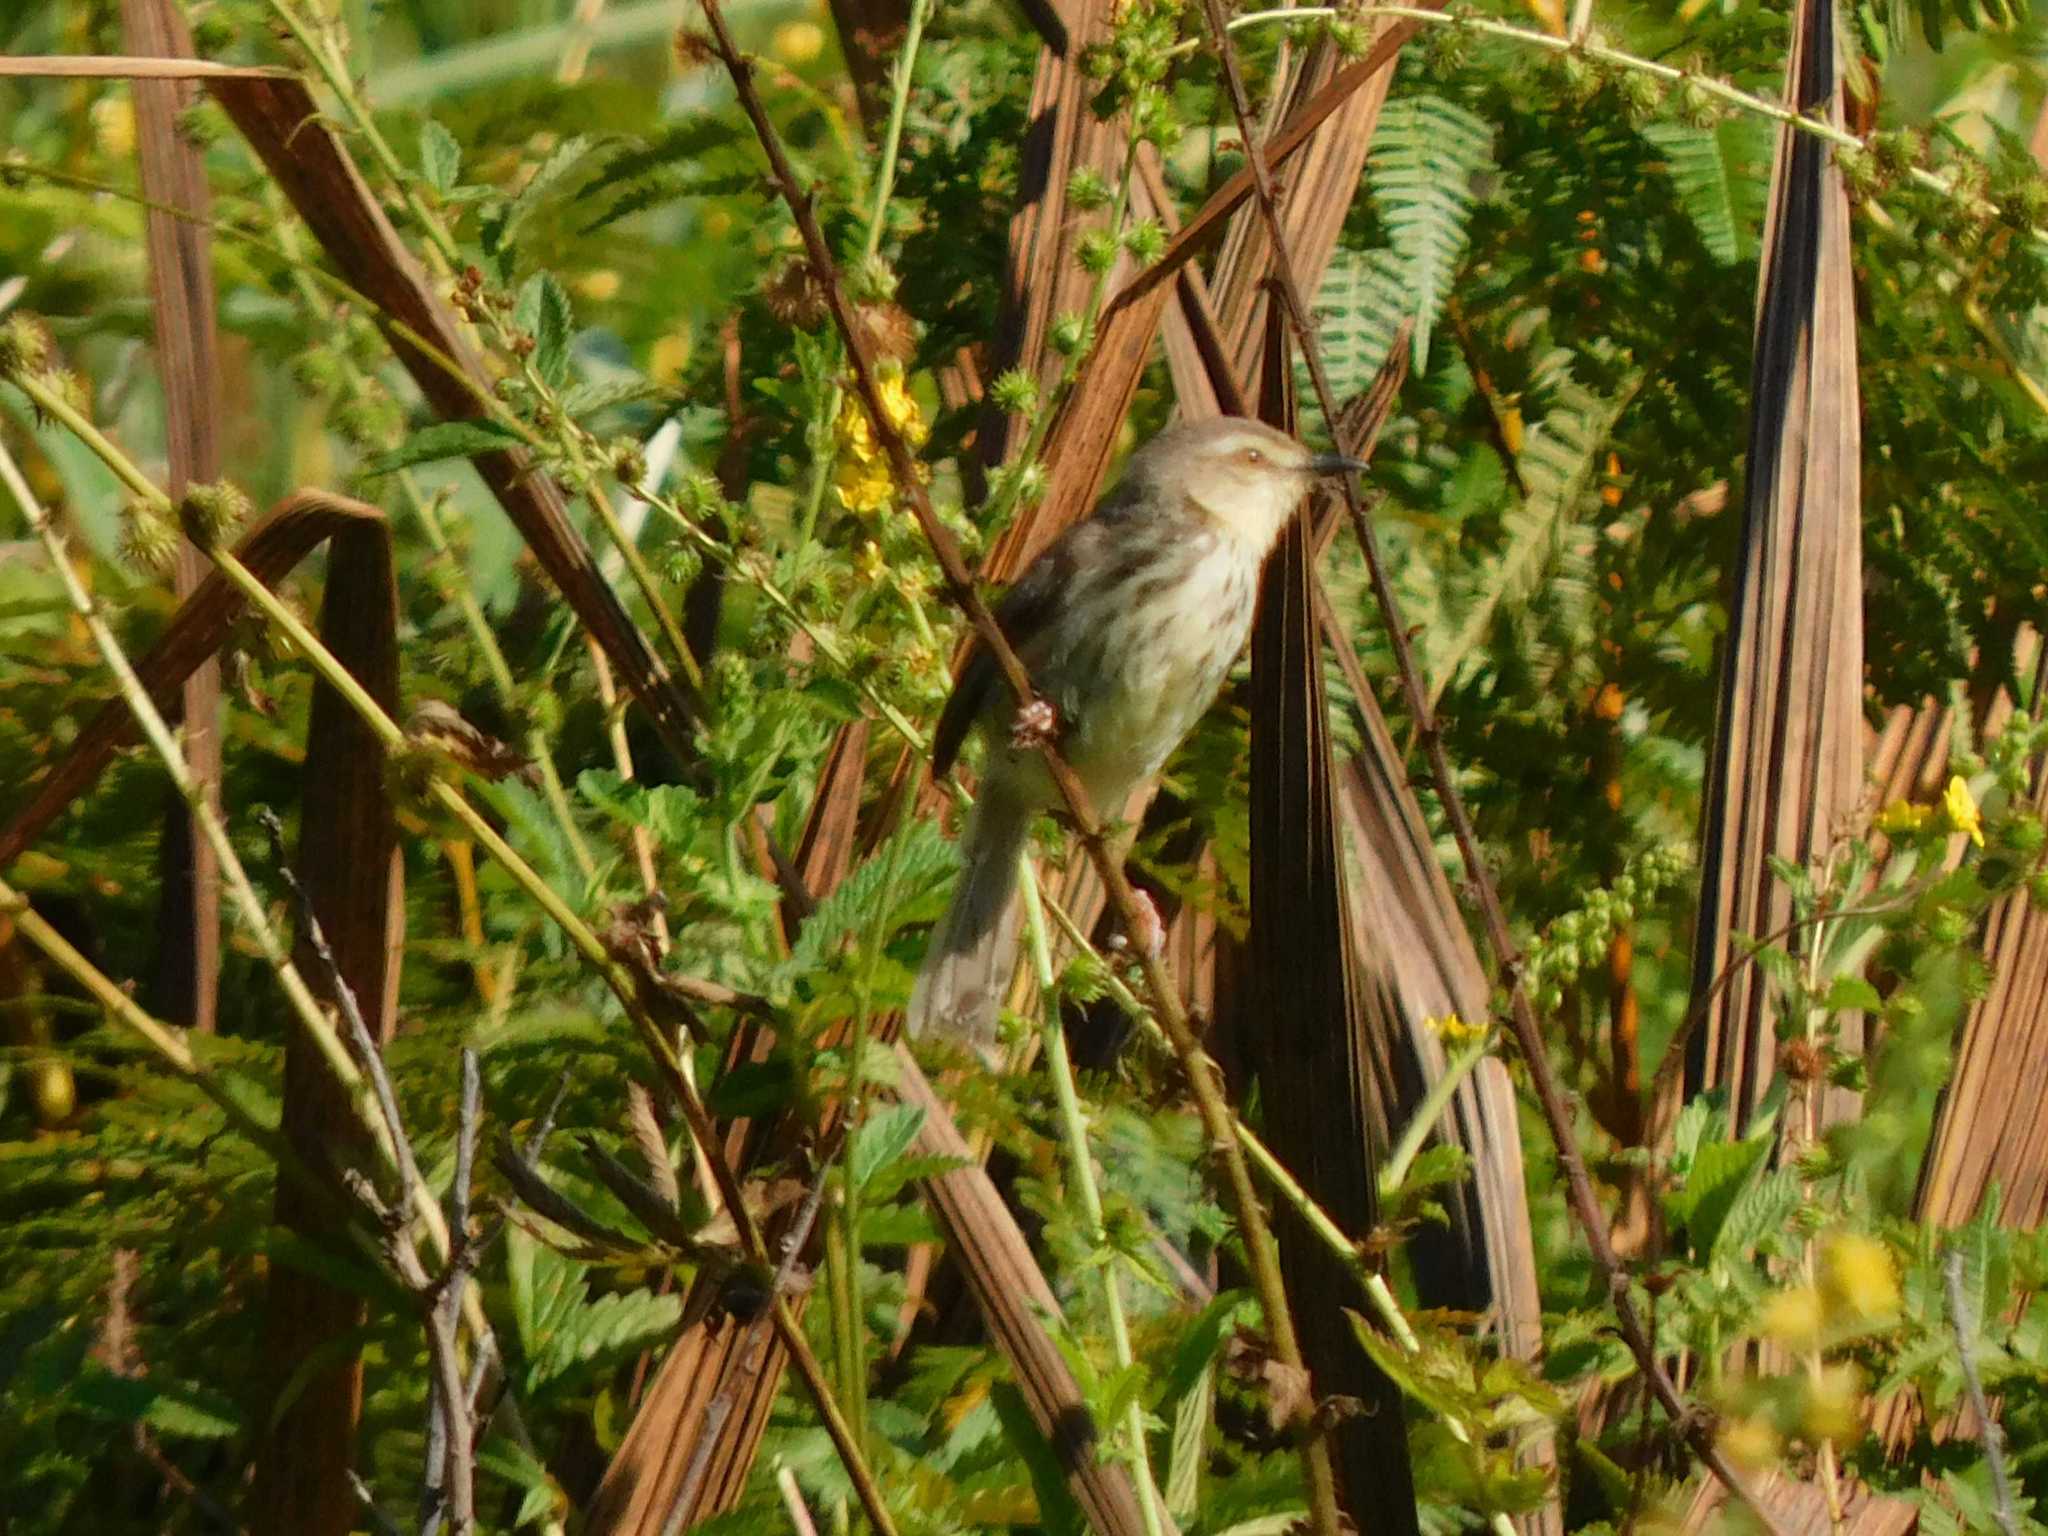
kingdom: Animalia
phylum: Chordata
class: Aves
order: Passeriformes
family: Cisticolidae
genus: Prinia
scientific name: Prinia hypoxantha
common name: Drakensberg prinia
